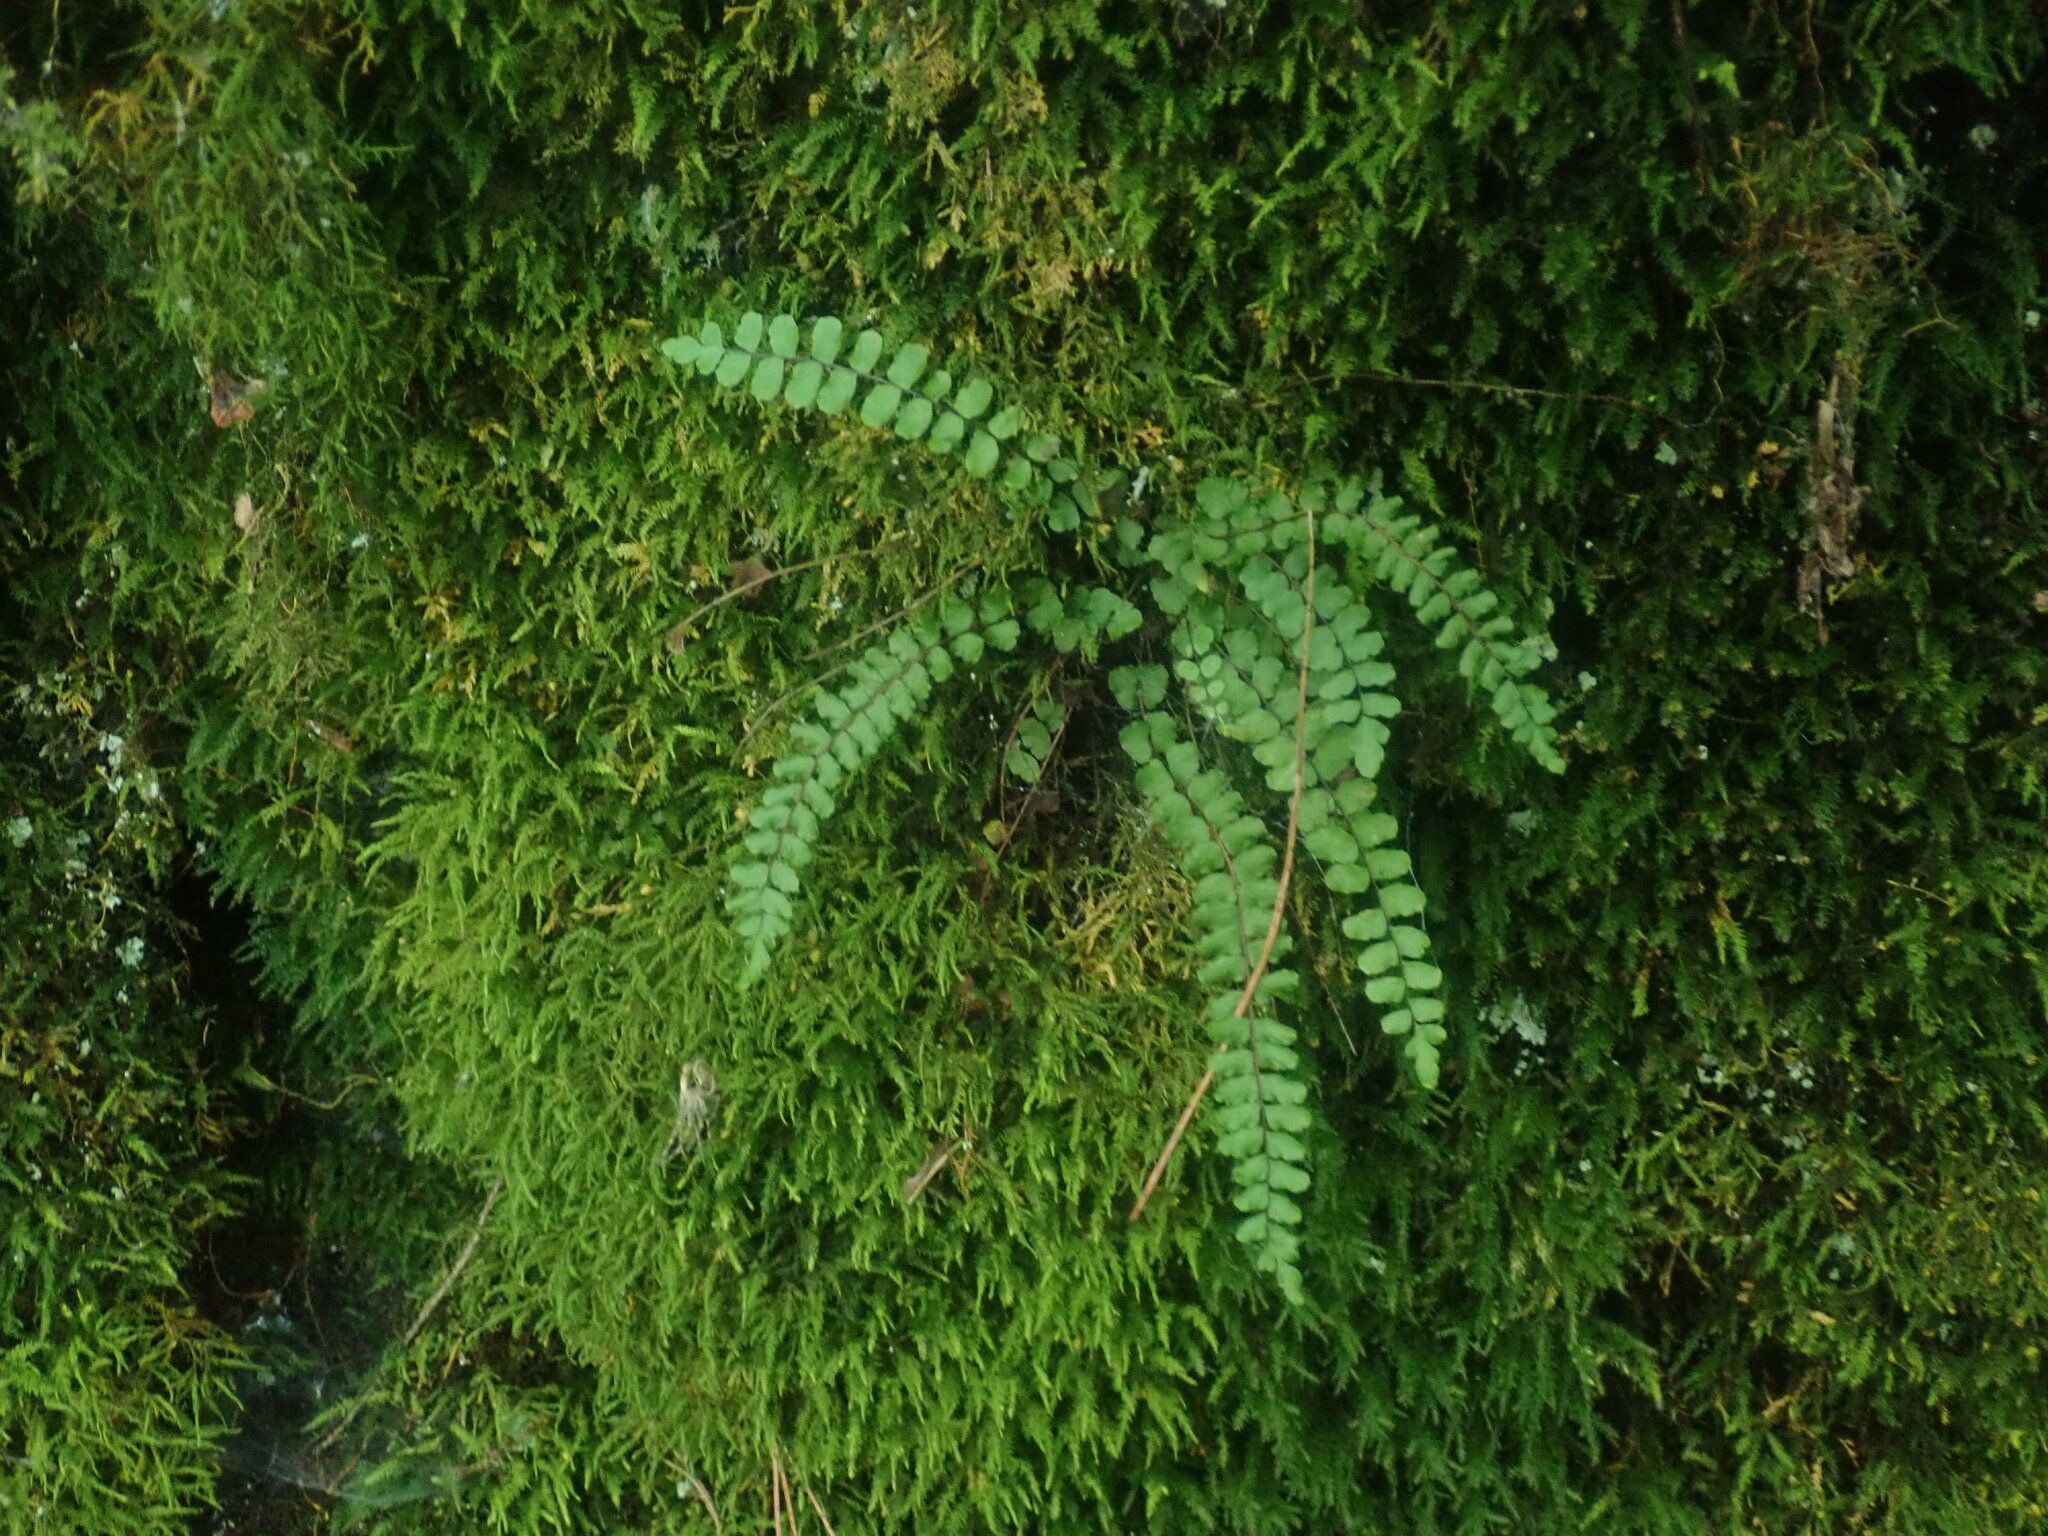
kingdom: Plantae
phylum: Tracheophyta
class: Polypodiopsida
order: Polypodiales
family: Aspleniaceae
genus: Asplenium
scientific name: Asplenium trichomanes
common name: Maidenhair spleenwort
